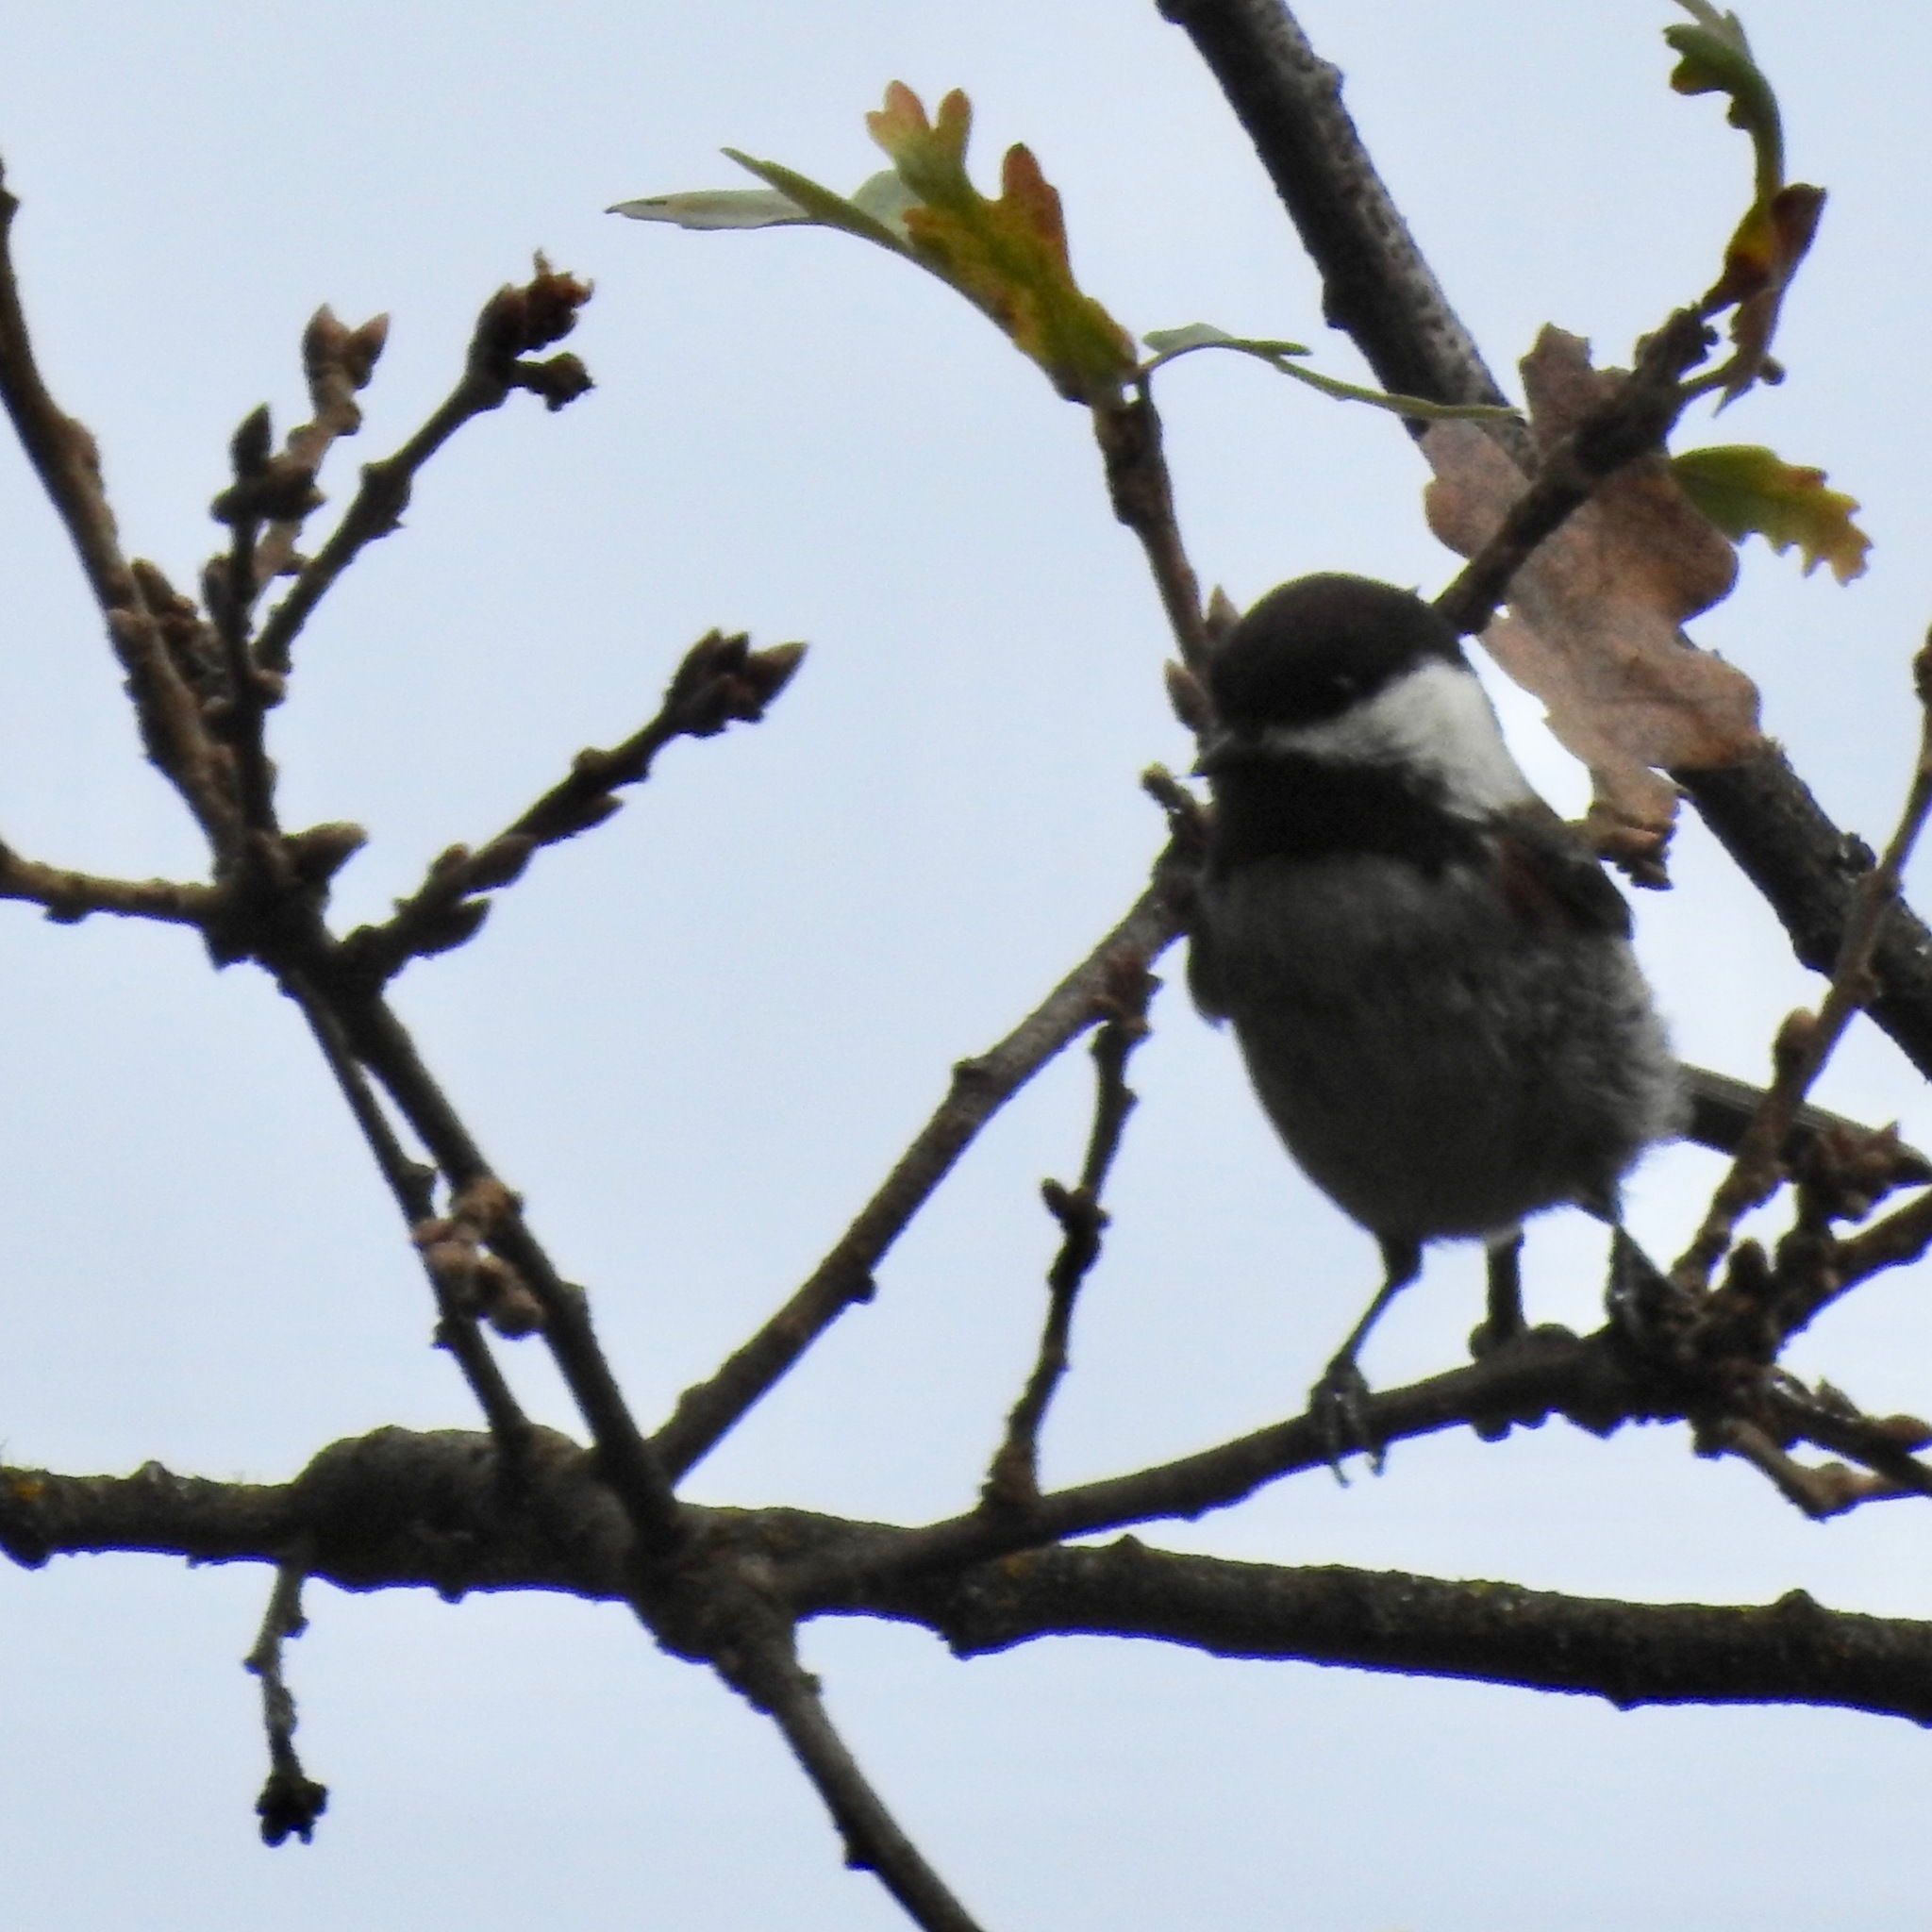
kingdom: Animalia
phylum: Chordata
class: Aves
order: Passeriformes
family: Paridae
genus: Poecile
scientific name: Poecile rufescens
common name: Chestnut-backed chickadee
